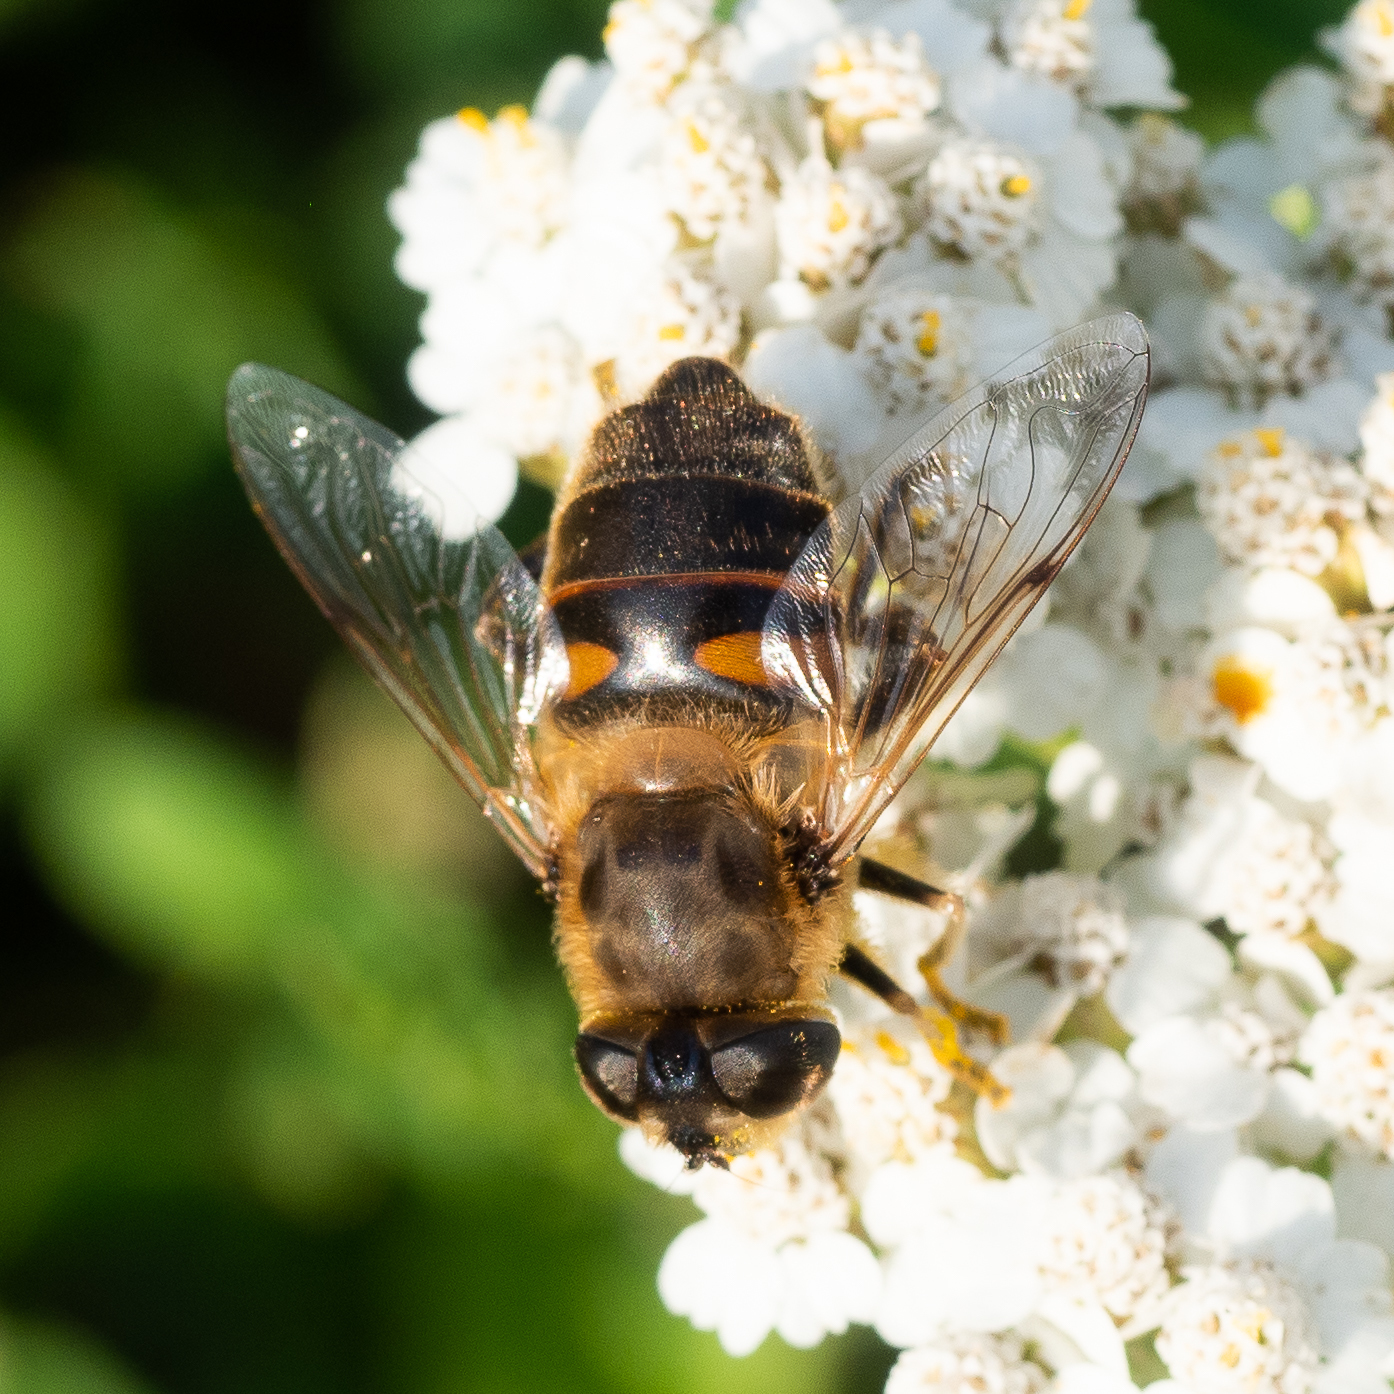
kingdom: Animalia
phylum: Arthropoda
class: Insecta
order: Diptera
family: Syrphidae
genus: Eristalis
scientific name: Eristalis tenax
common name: Drone fly
